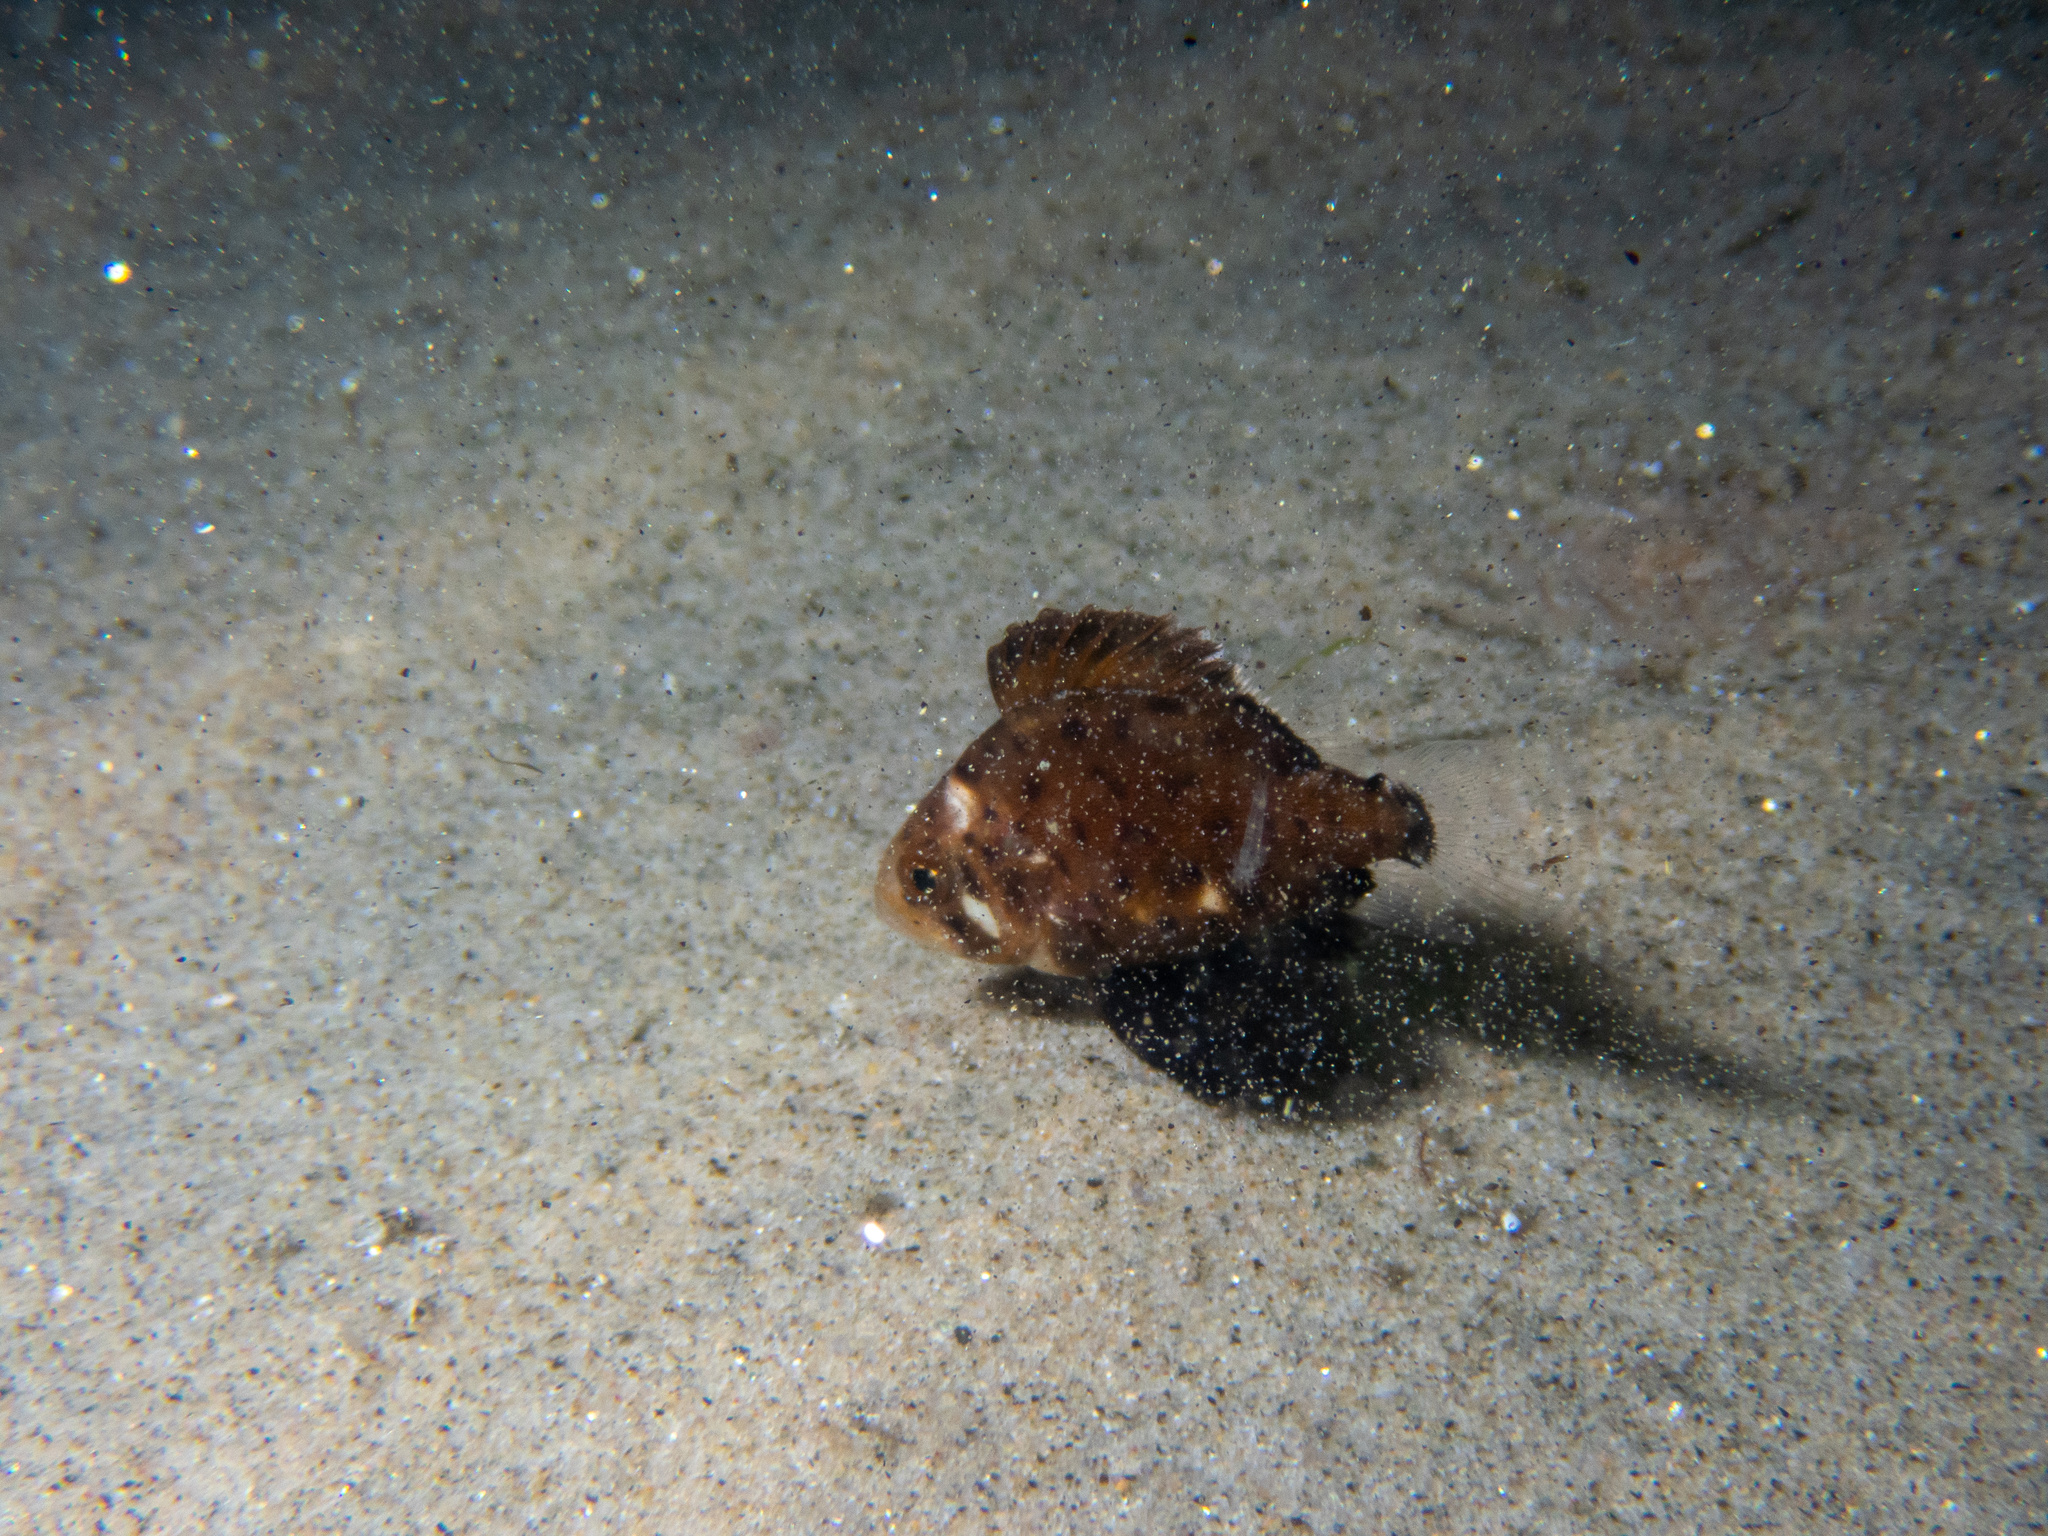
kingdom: Animalia
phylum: Chordata
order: Perciformes
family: Polyprionidae
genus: Stereolepis
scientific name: Stereolepis gigas
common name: Giant sea bass
